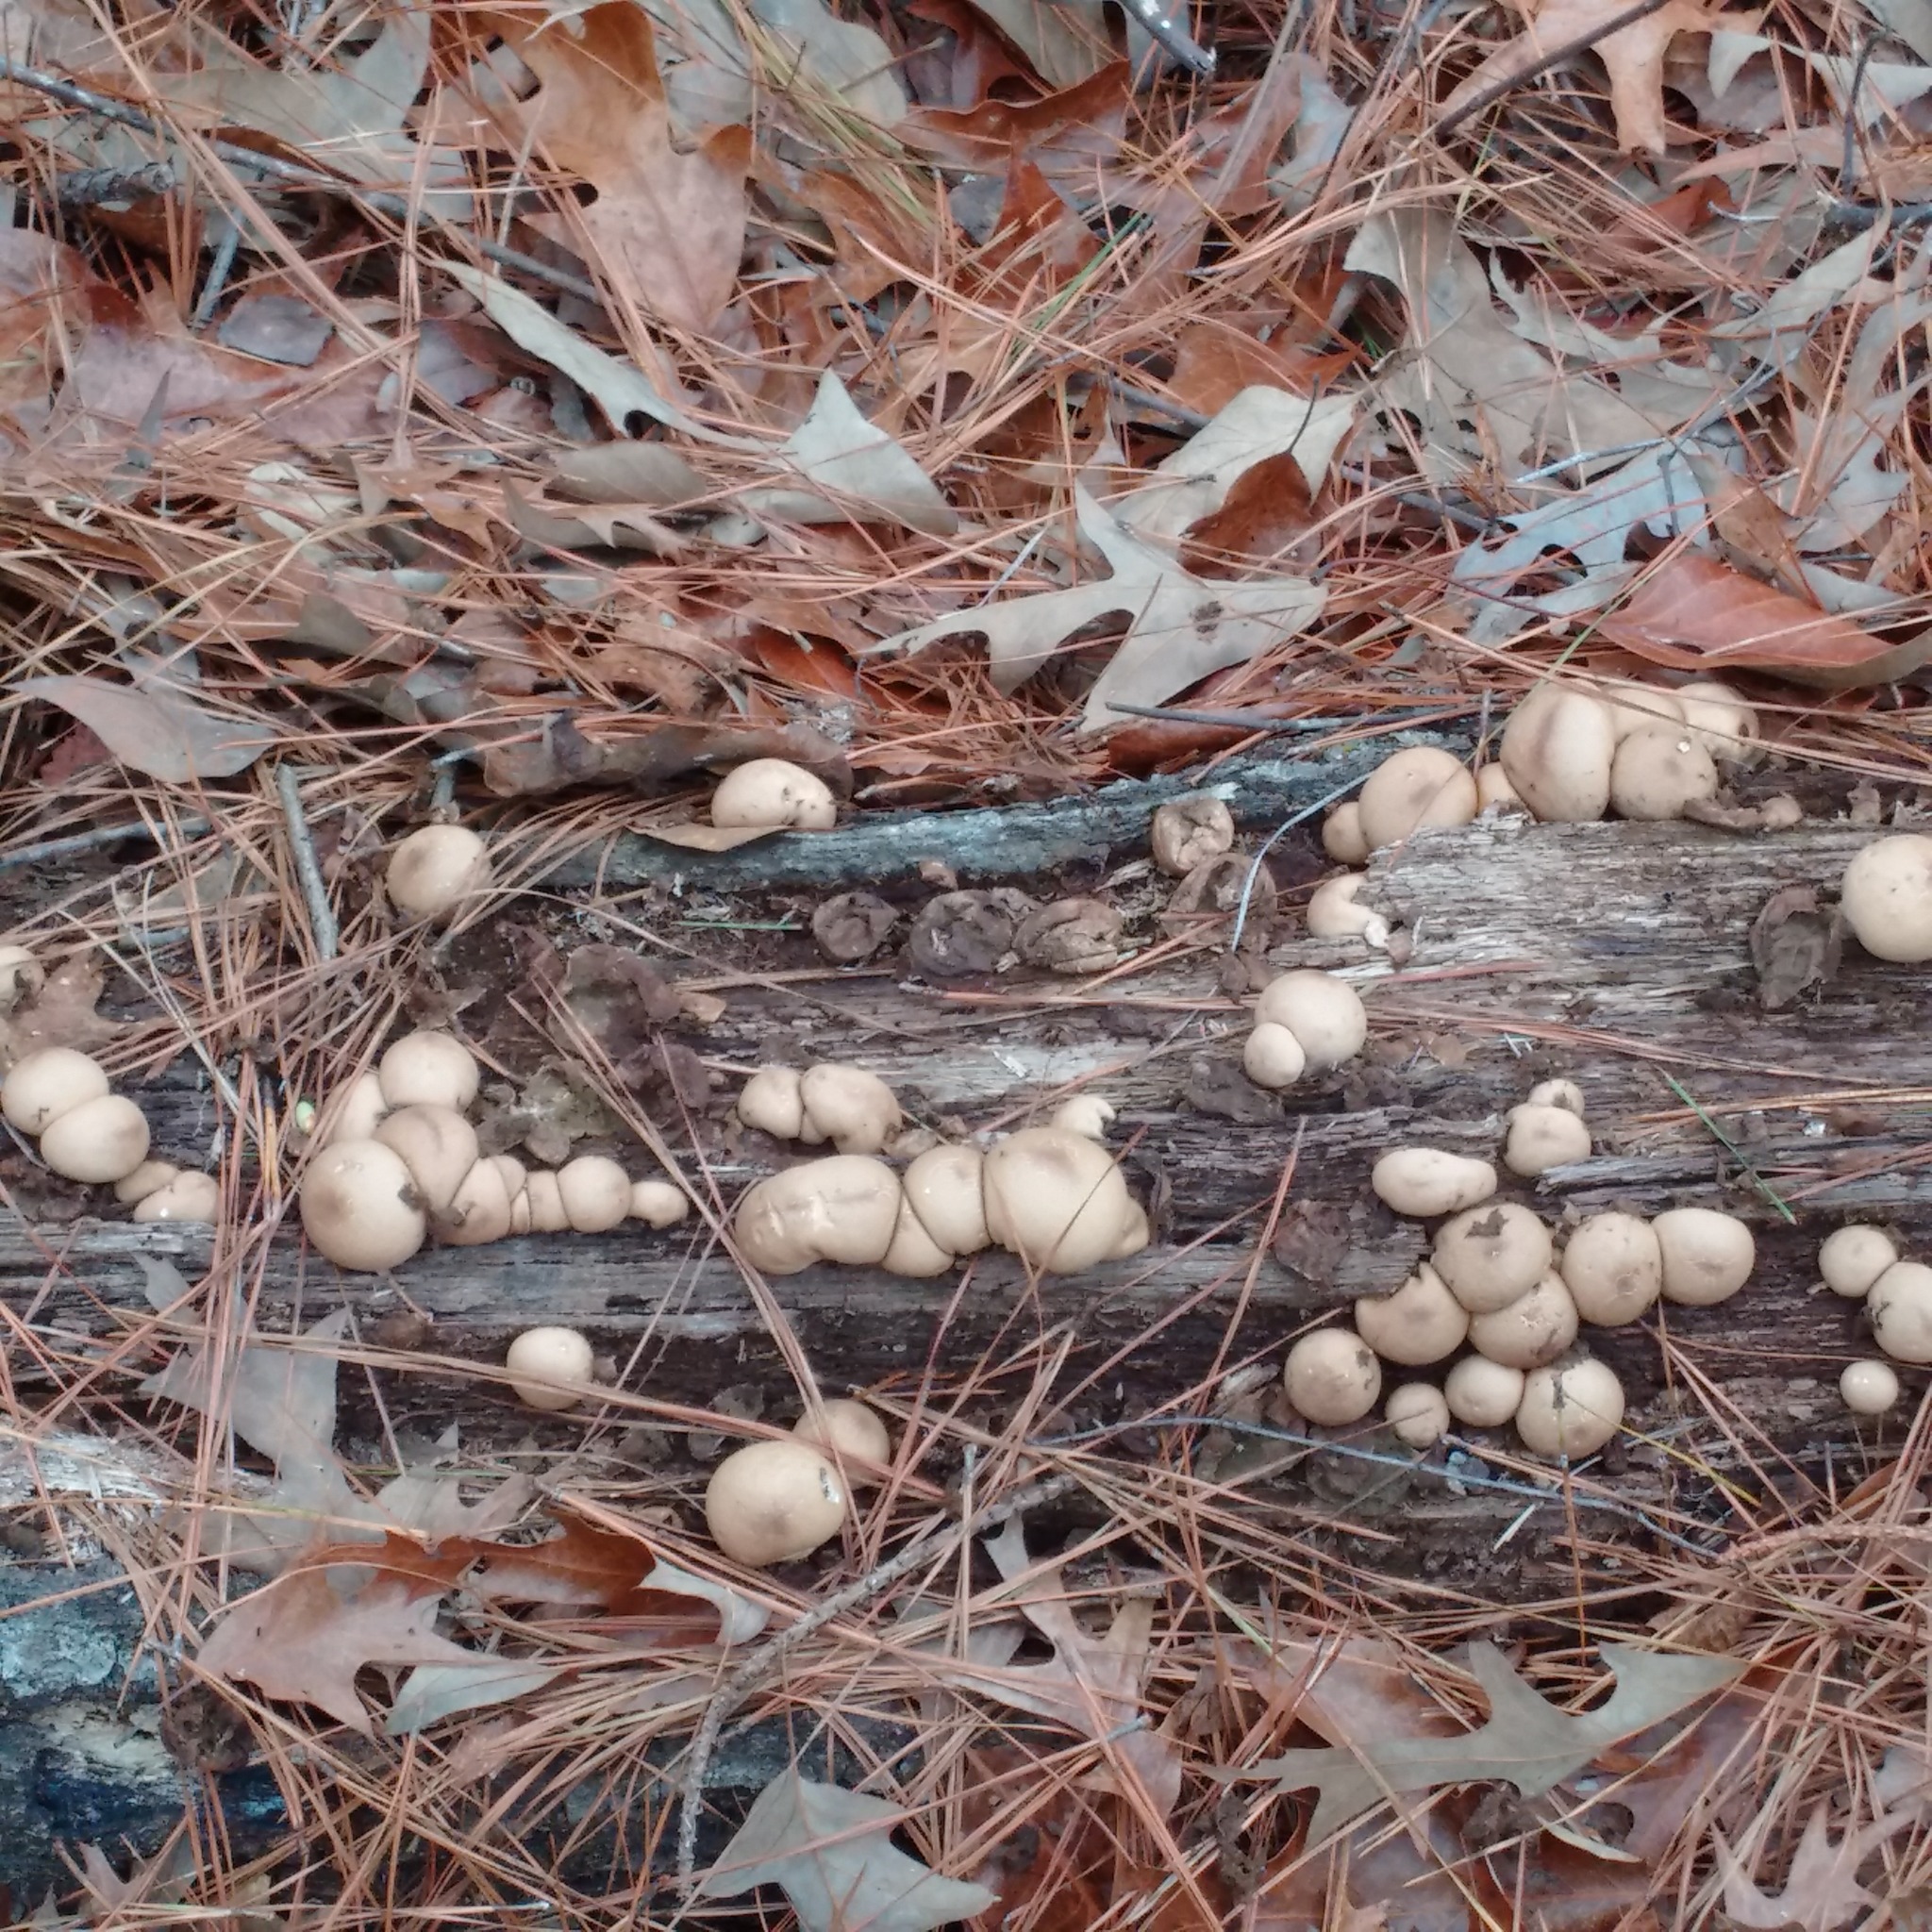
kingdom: Fungi
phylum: Basidiomycota
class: Agaricomycetes
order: Agaricales
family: Lycoperdaceae
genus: Apioperdon
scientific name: Apioperdon pyriforme
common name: Pear-shaped puffball
